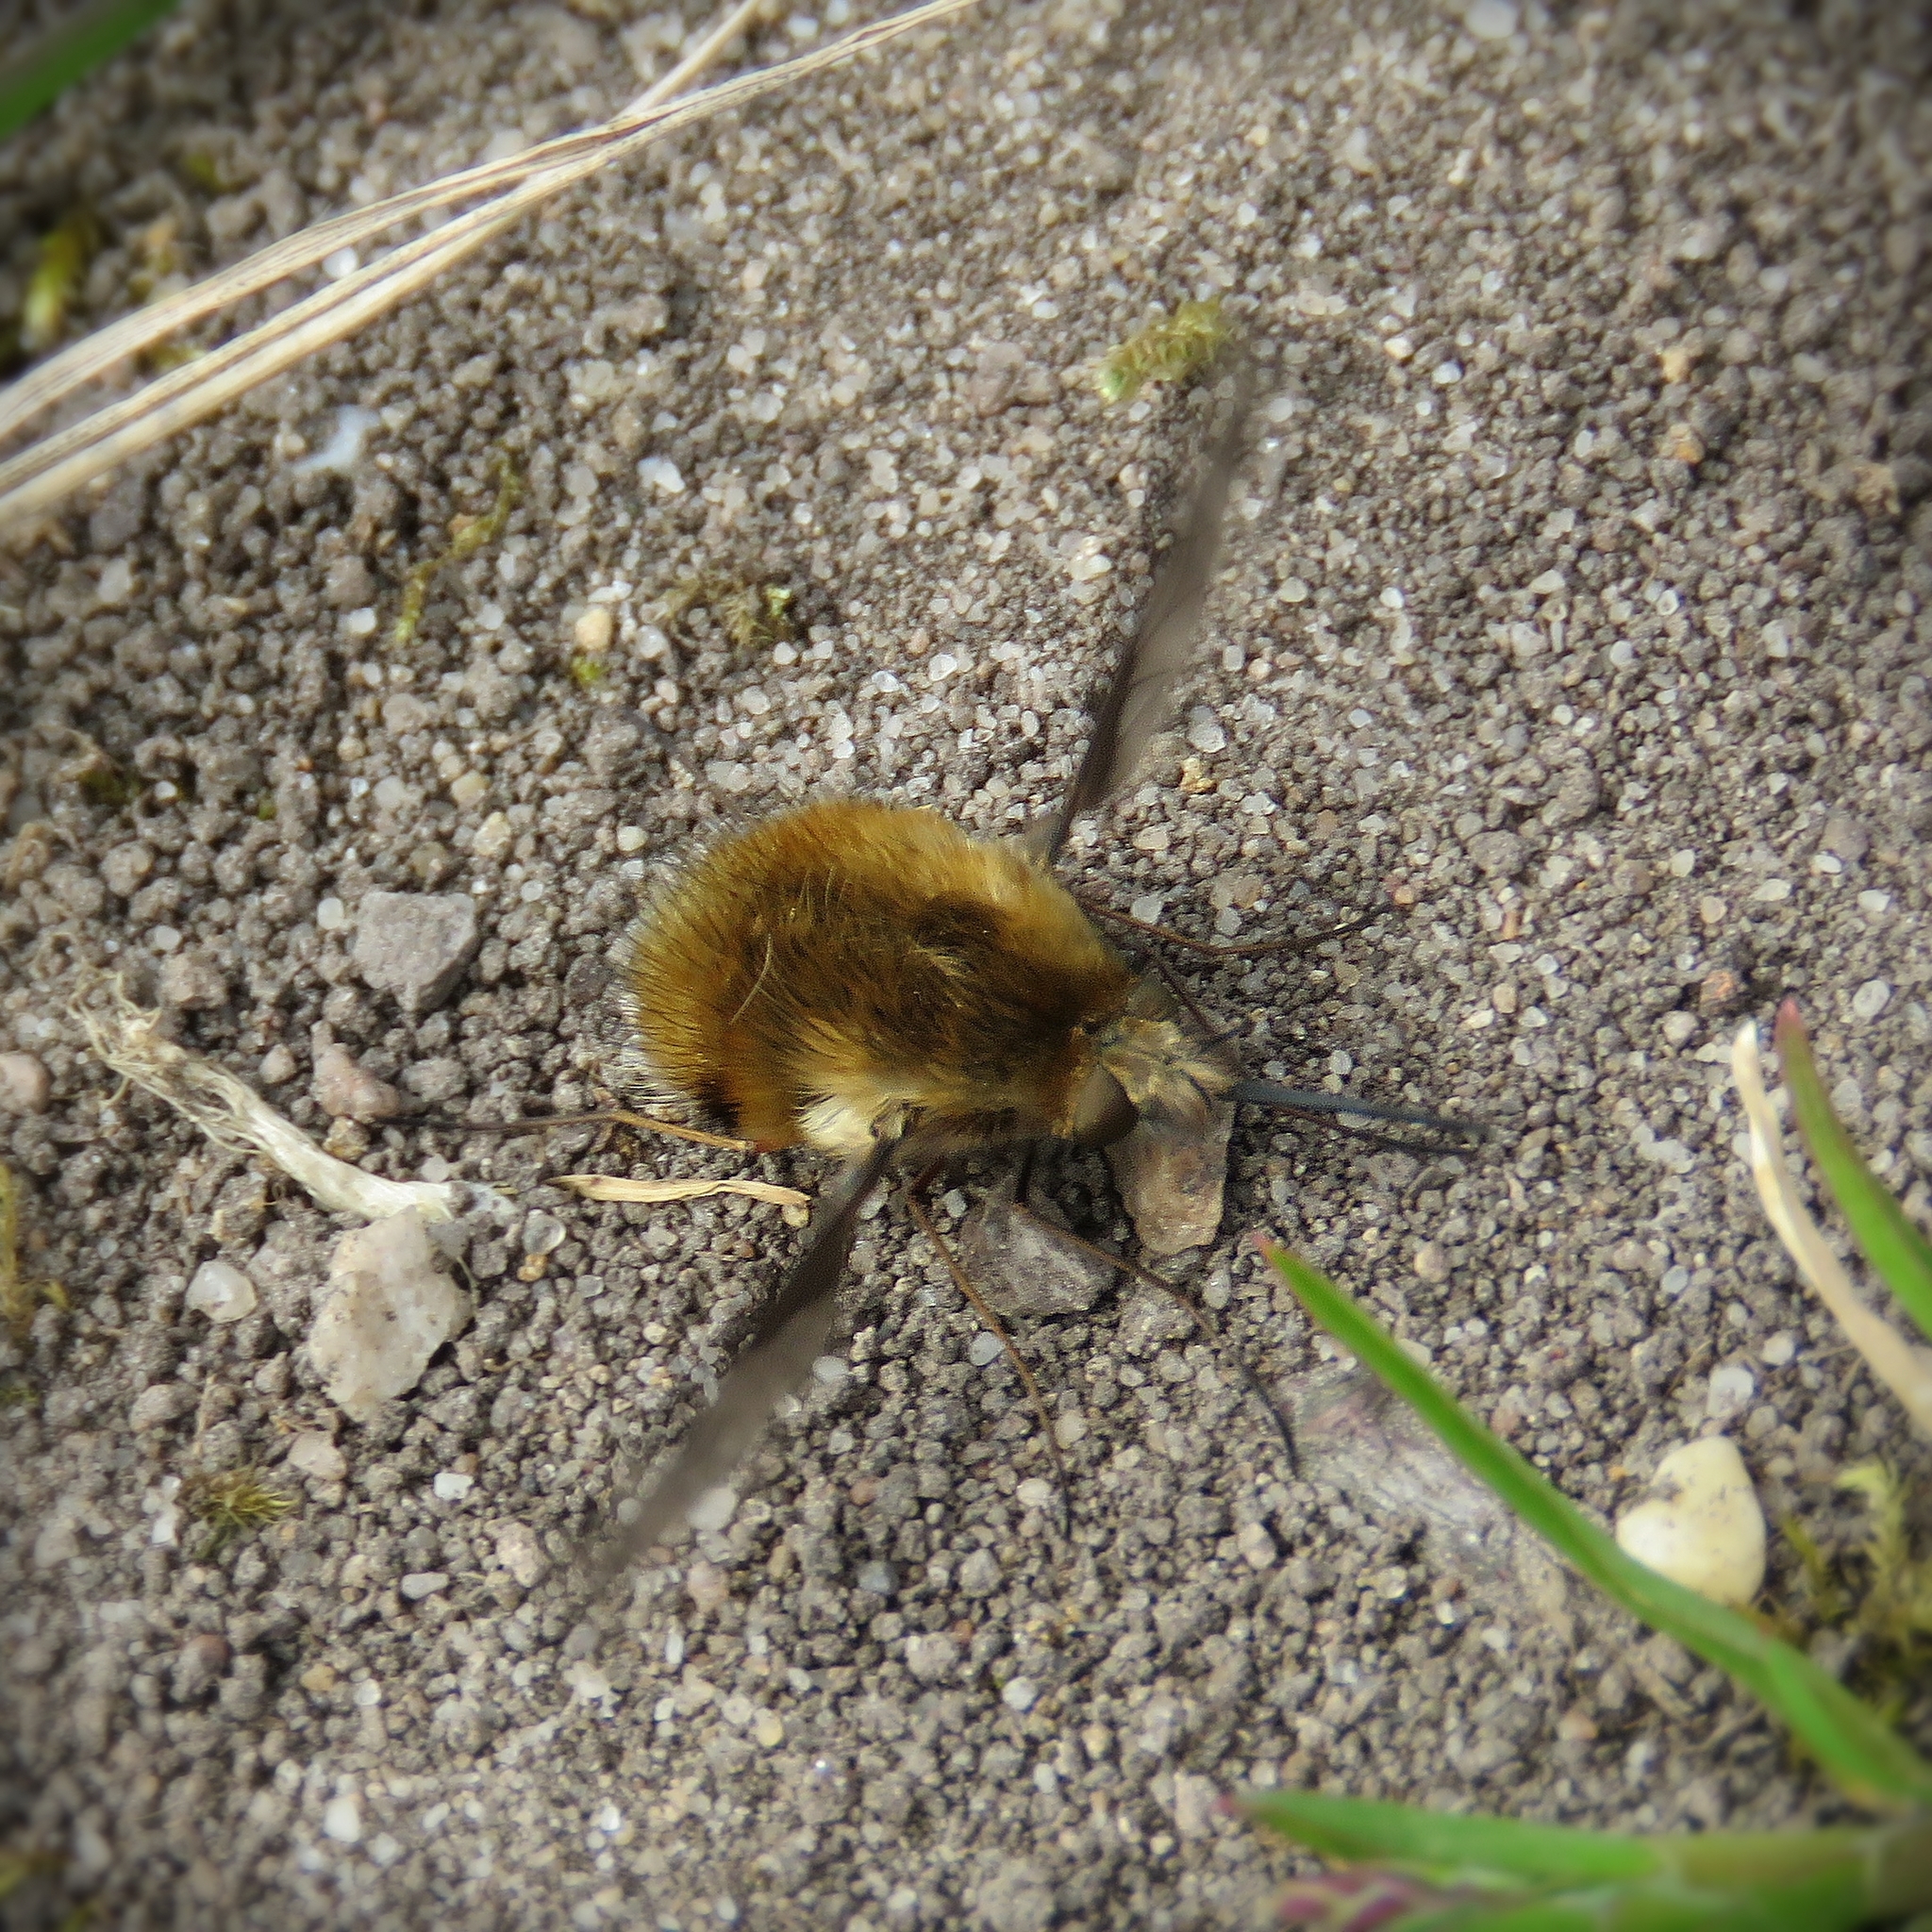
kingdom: Animalia
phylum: Arthropoda
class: Insecta
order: Diptera
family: Bombyliidae
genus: Bombylius
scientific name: Bombylius major
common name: Bee fly
